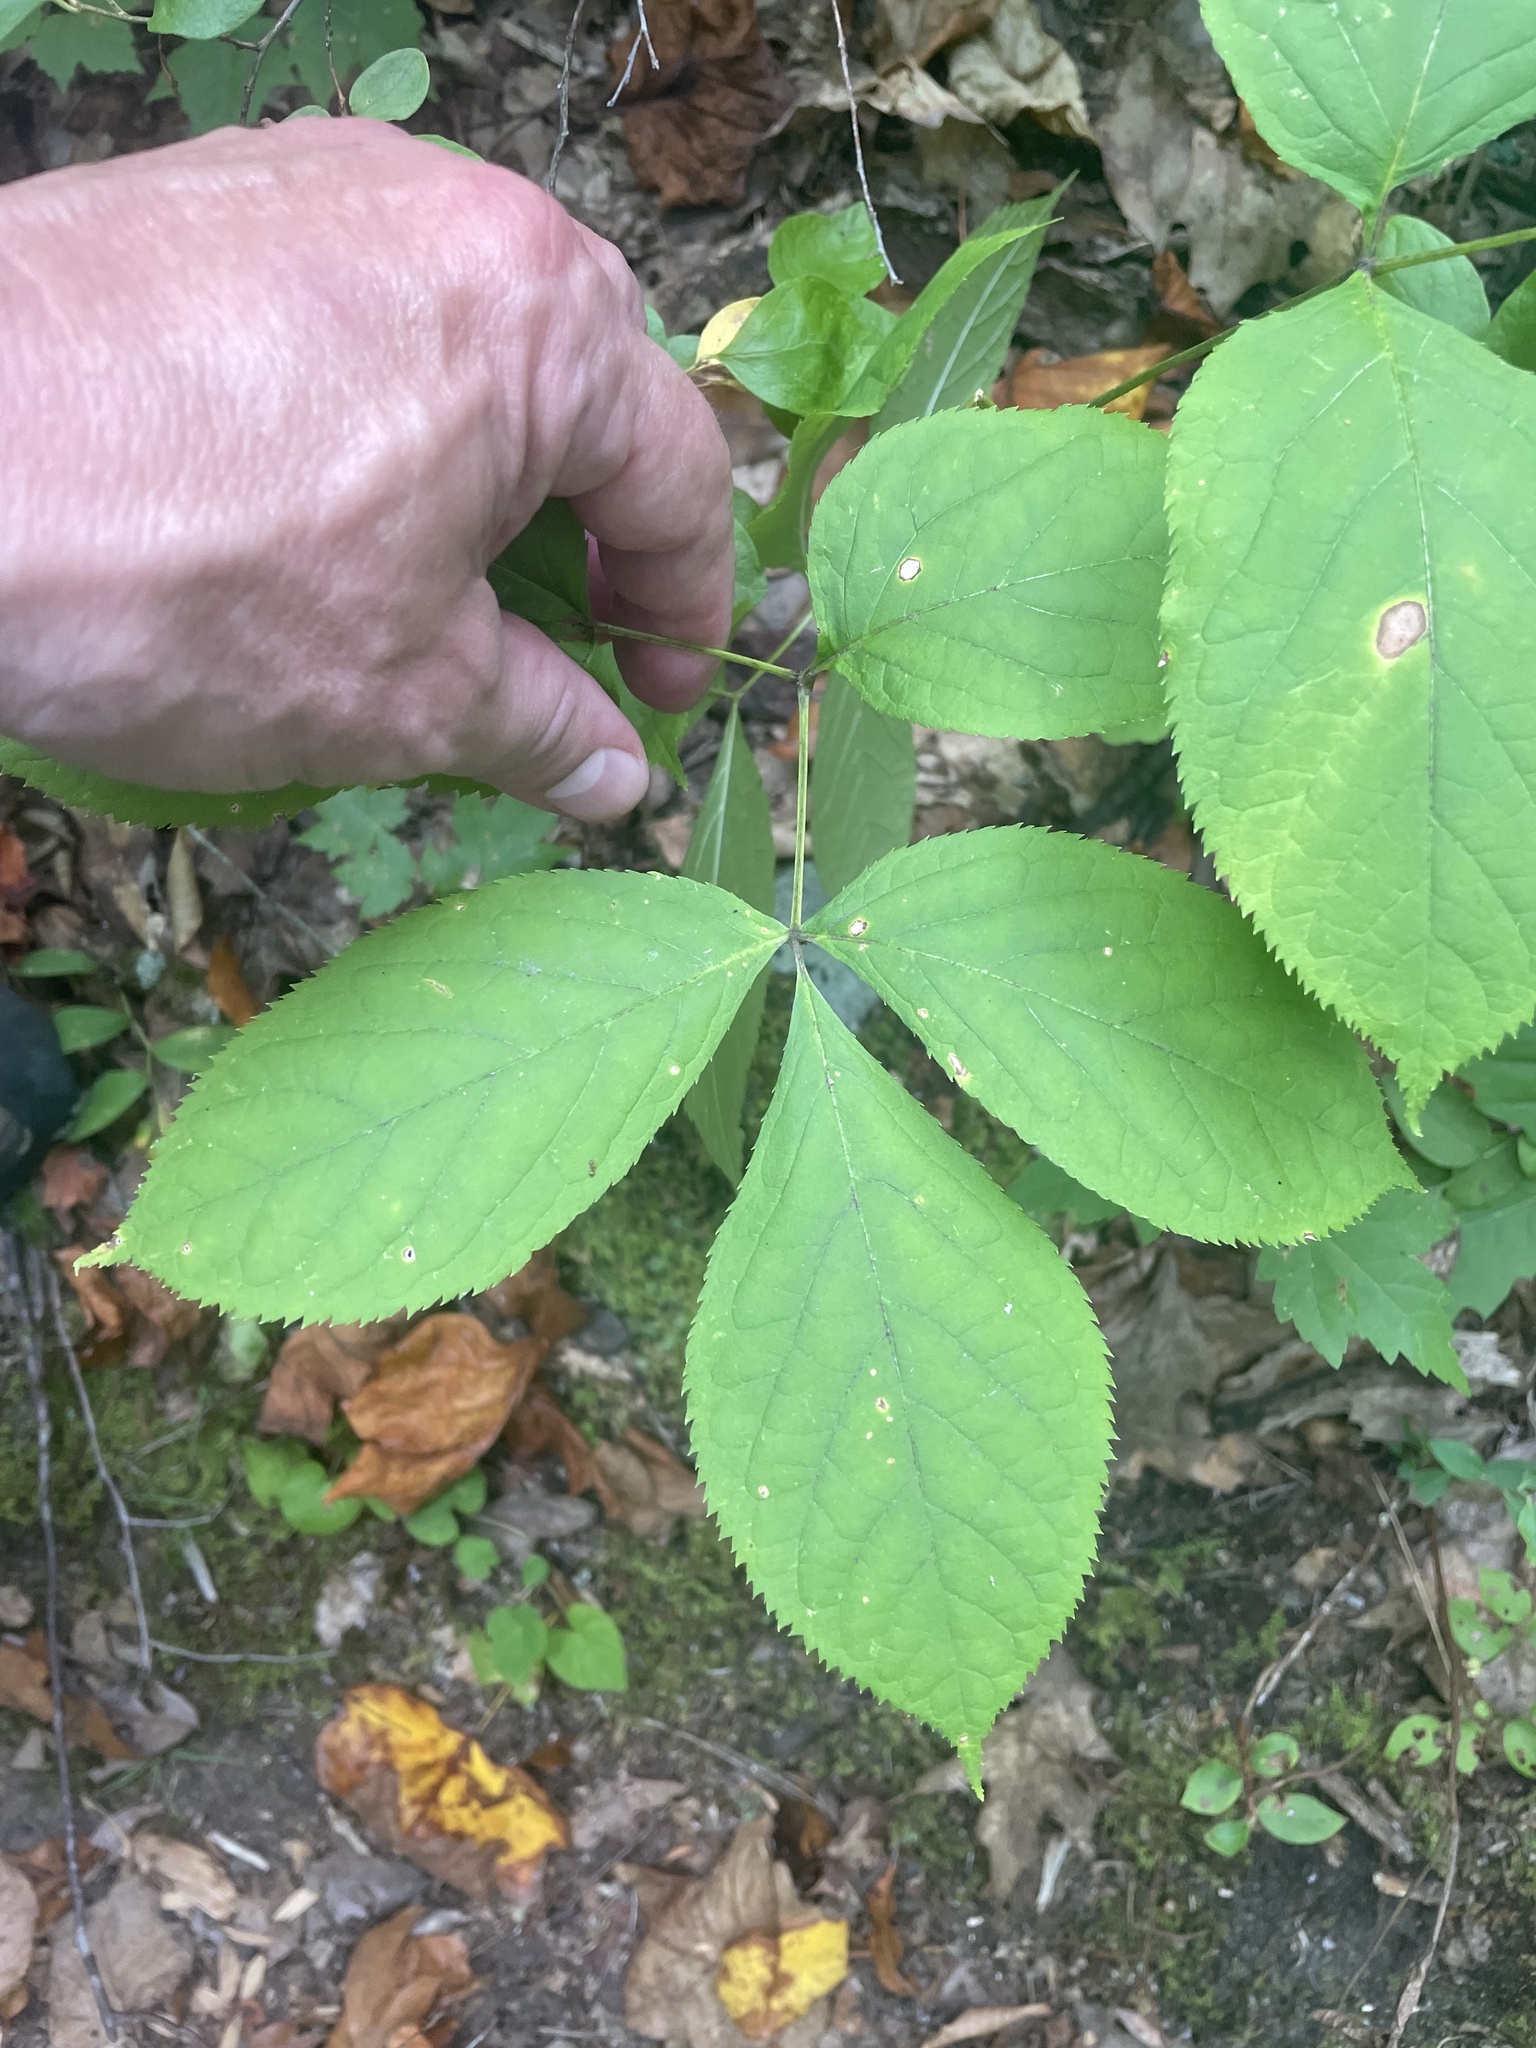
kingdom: Plantae
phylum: Tracheophyta
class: Magnoliopsida
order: Apiales
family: Araliaceae
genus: Aralia
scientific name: Aralia nudicaulis
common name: Wild sarsaparilla
